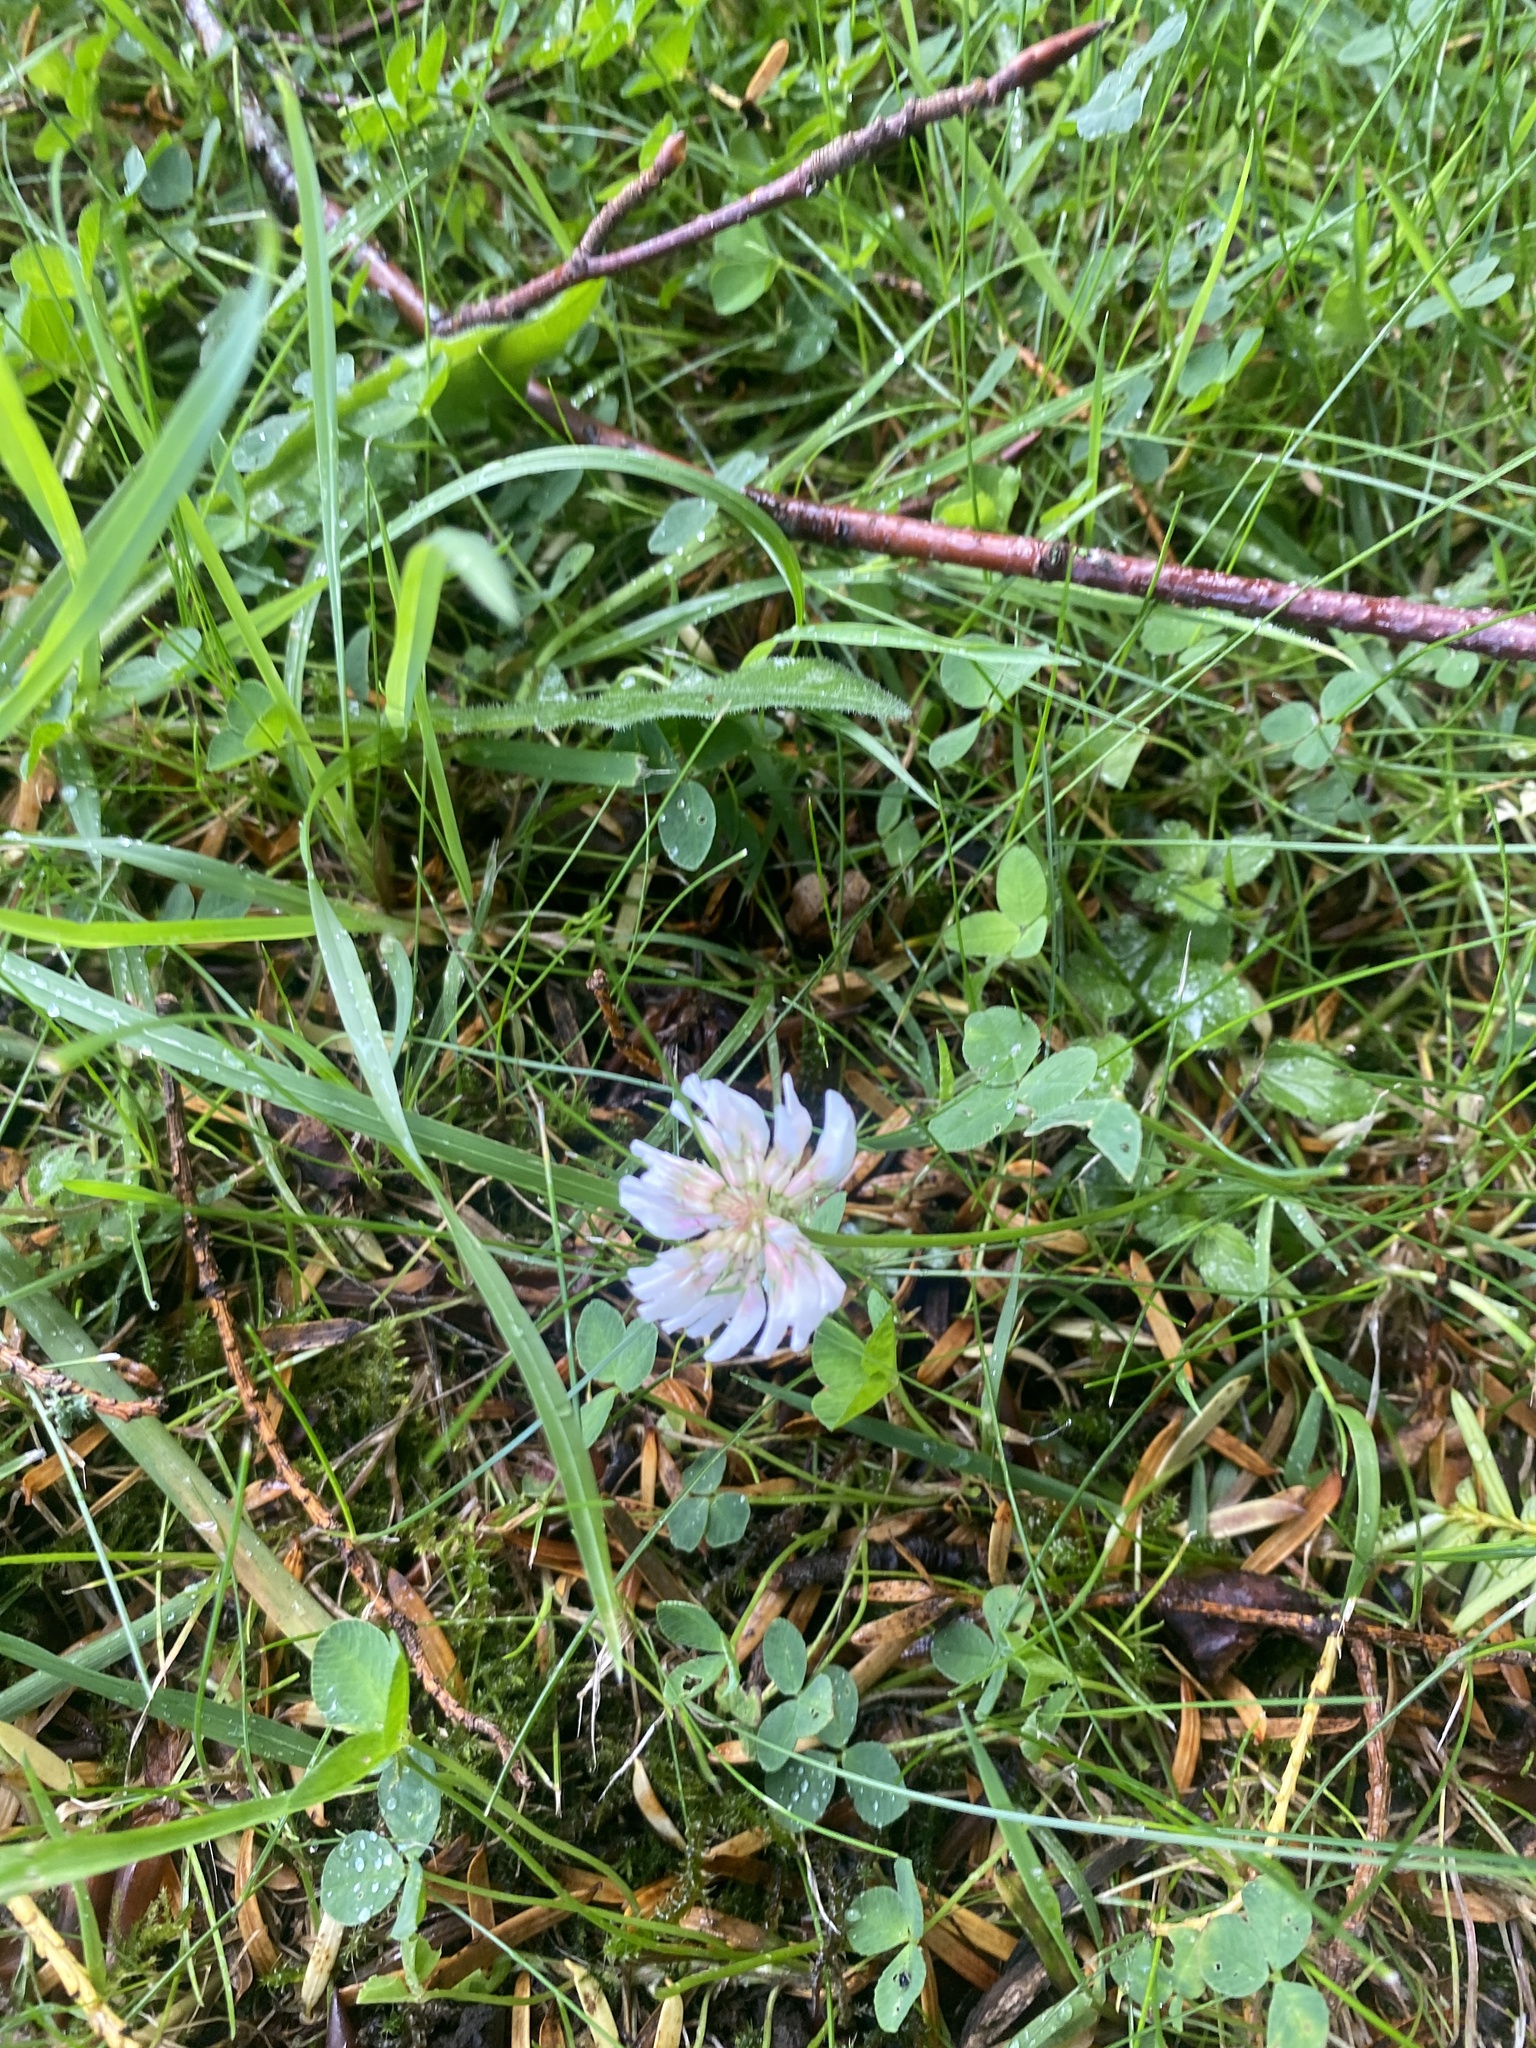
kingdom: Plantae
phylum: Tracheophyta
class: Magnoliopsida
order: Fabales
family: Fabaceae
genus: Trifolium
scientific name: Trifolium repens
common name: White clover
